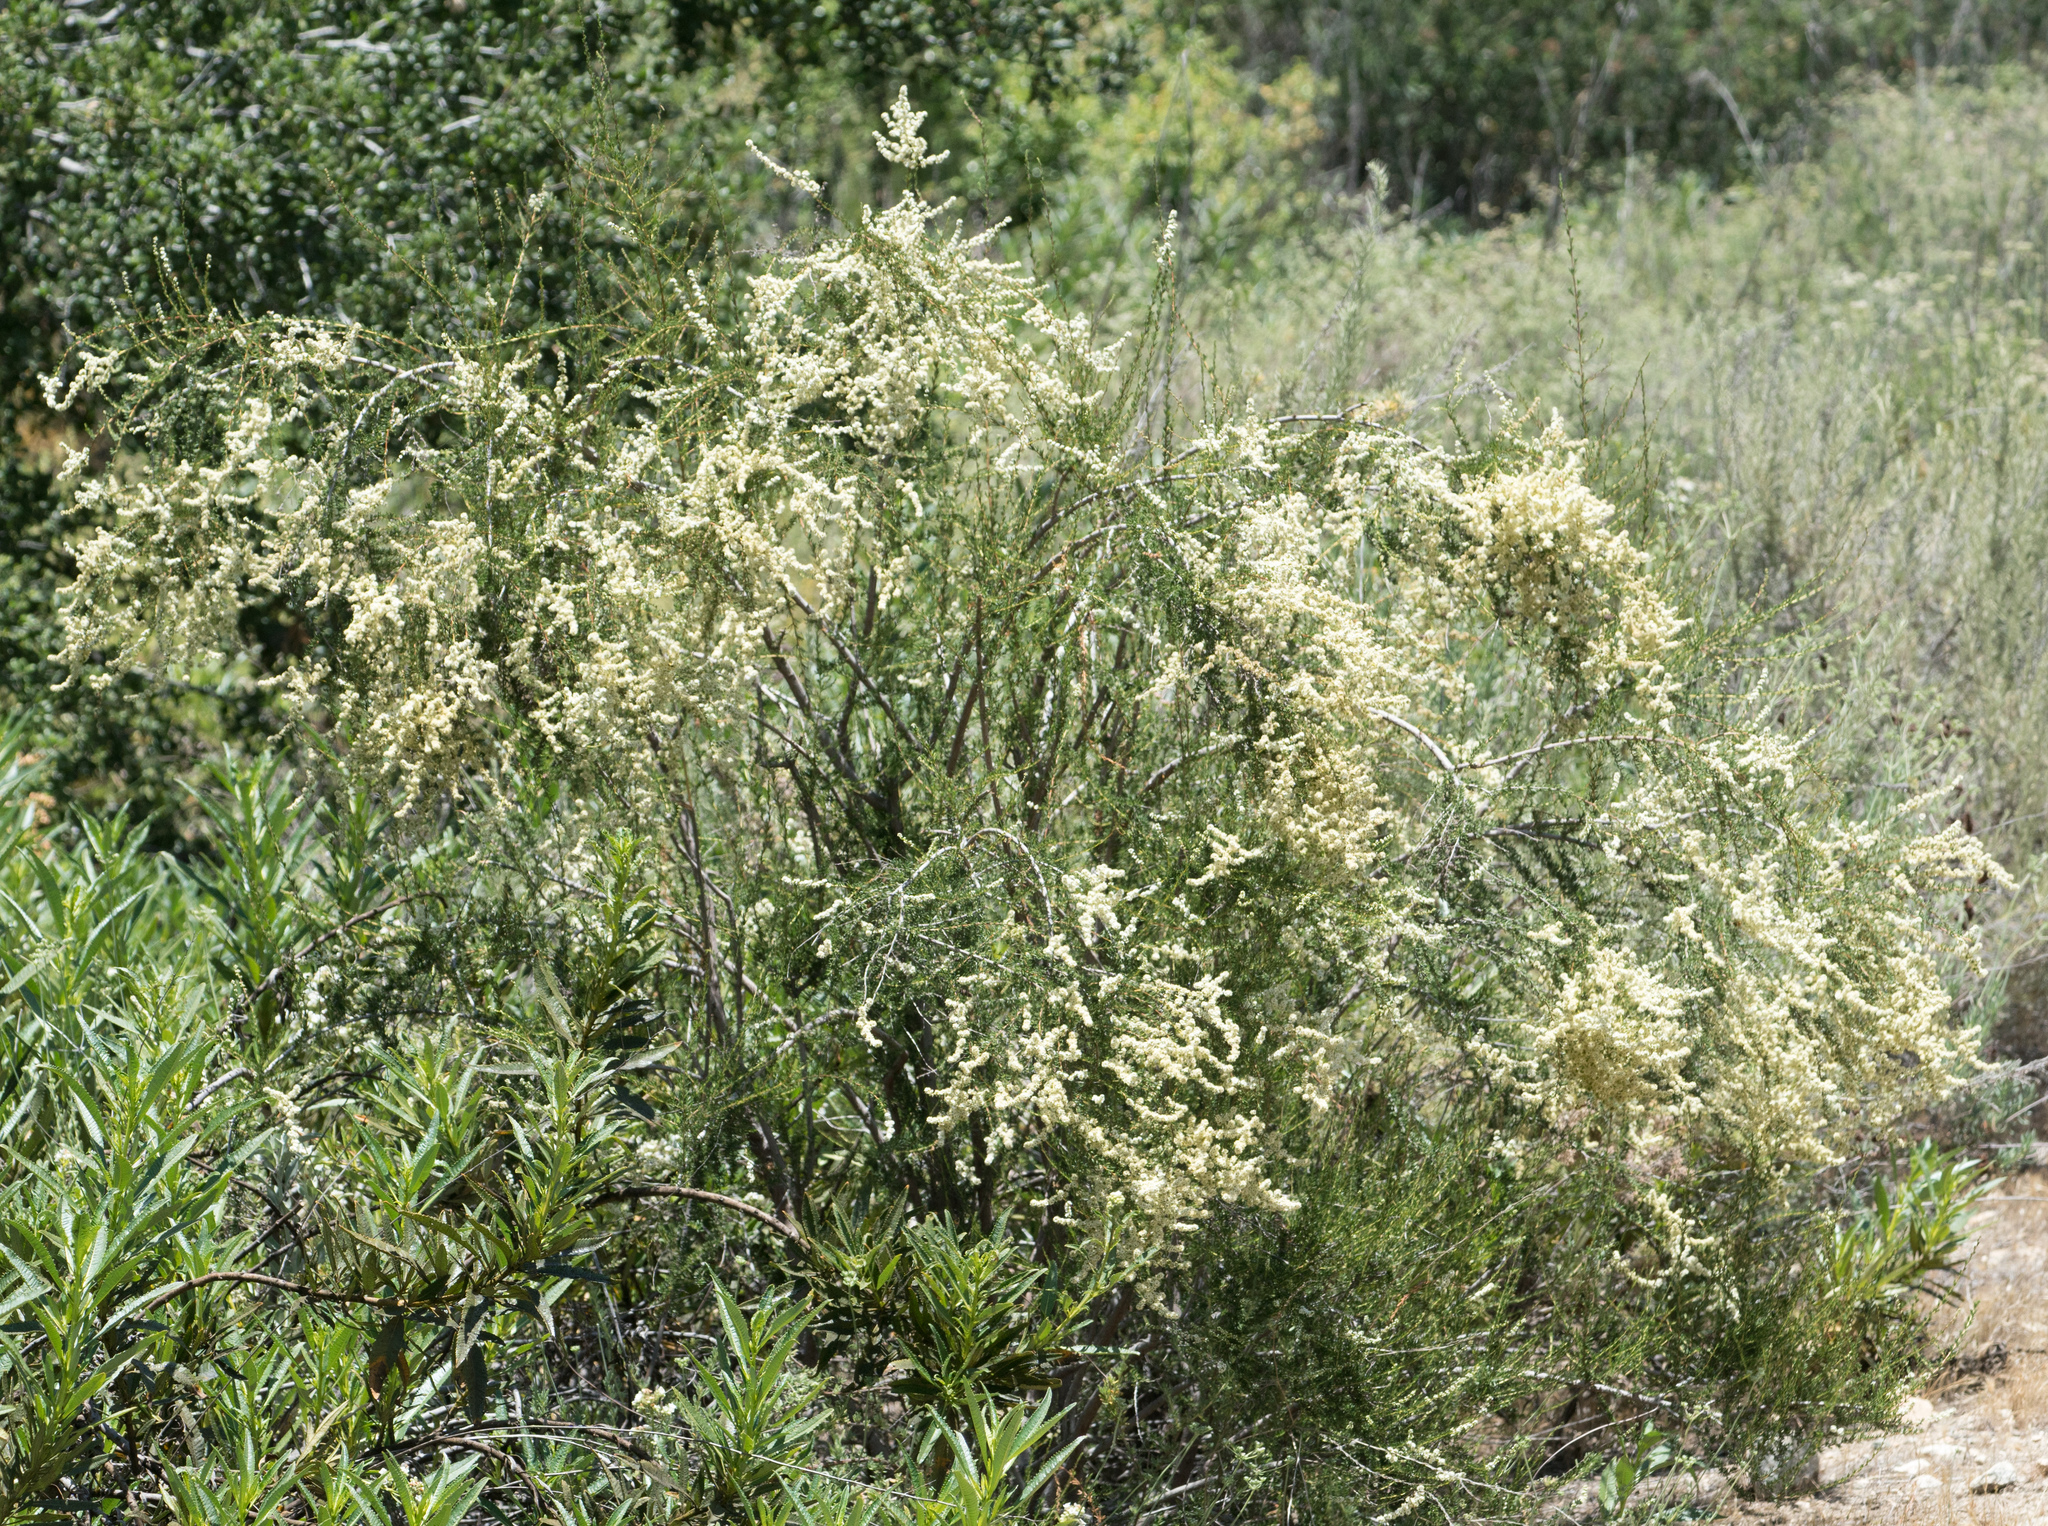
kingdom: Plantae
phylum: Tracheophyta
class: Magnoliopsida
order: Rosales
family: Rosaceae
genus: Adenostoma
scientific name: Adenostoma fasciculatum
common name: Chamise
